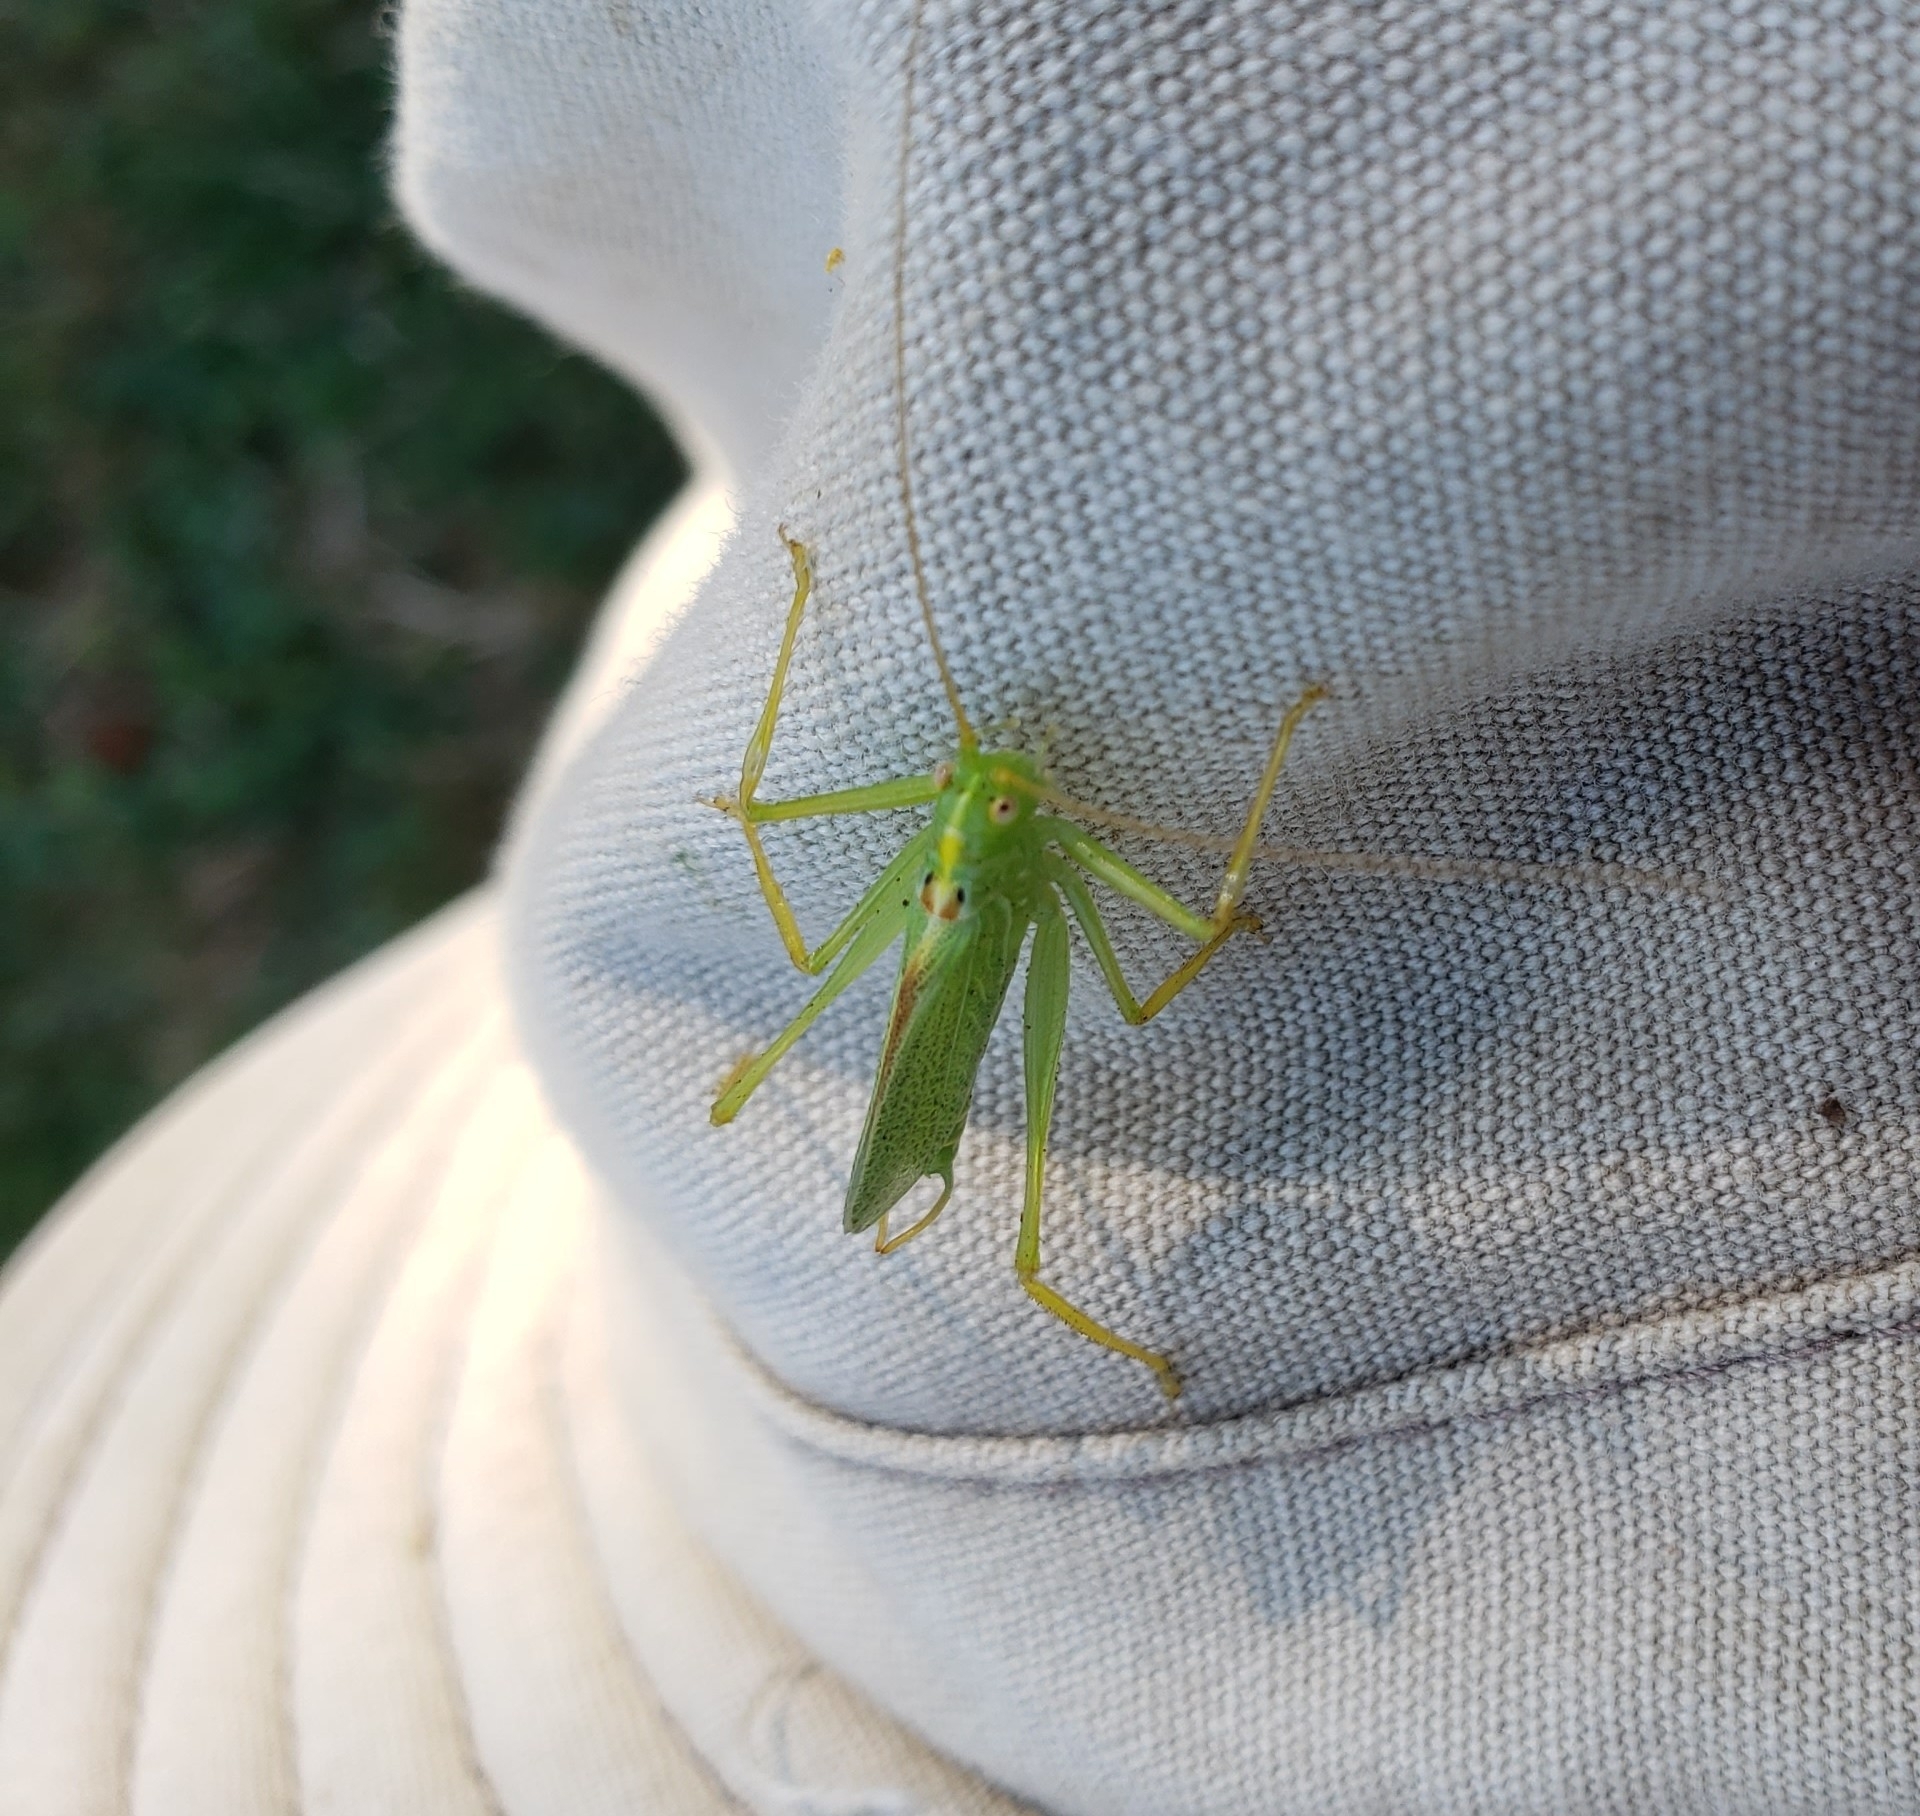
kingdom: Animalia
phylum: Arthropoda
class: Insecta
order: Orthoptera
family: Tettigoniidae
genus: Meconema
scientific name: Meconema thalassinum
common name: Oak bush-cricket
